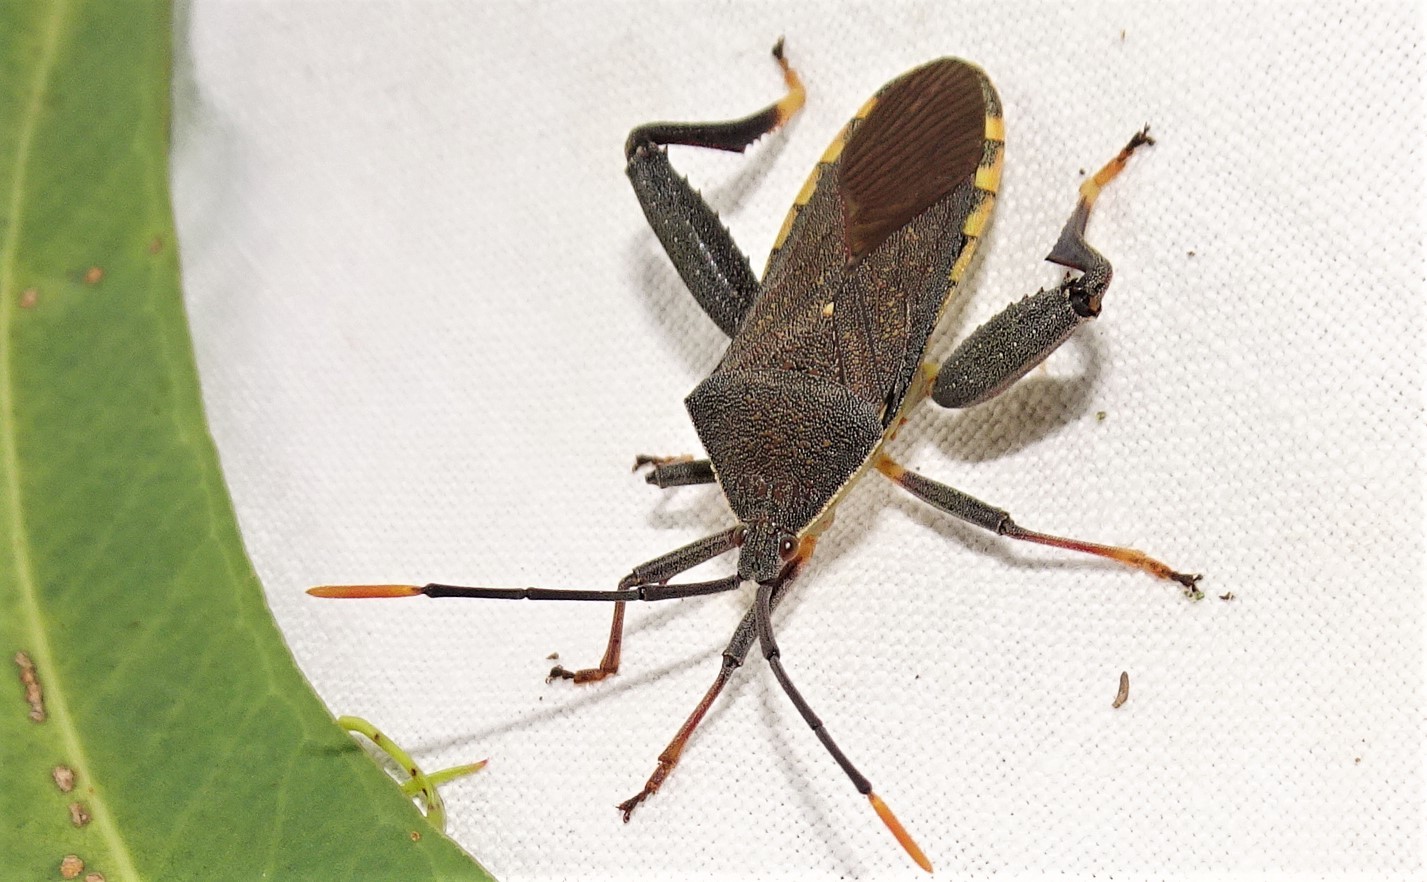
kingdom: Animalia
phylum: Arthropoda
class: Insecta
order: Hemiptera
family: Coreidae
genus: Amorbus
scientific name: Amorbus atomarius
